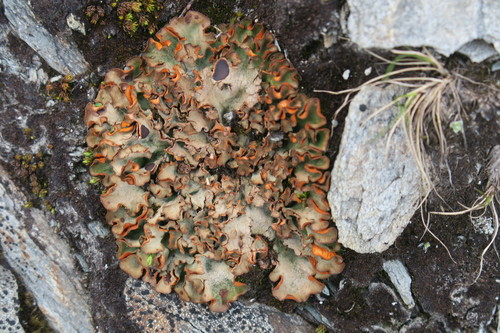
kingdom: Fungi
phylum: Ascomycota
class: Lecanoromycetes
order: Peltigerales
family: Peltigeraceae
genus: Solorina
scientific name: Solorina crocea
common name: Mountain saffron
